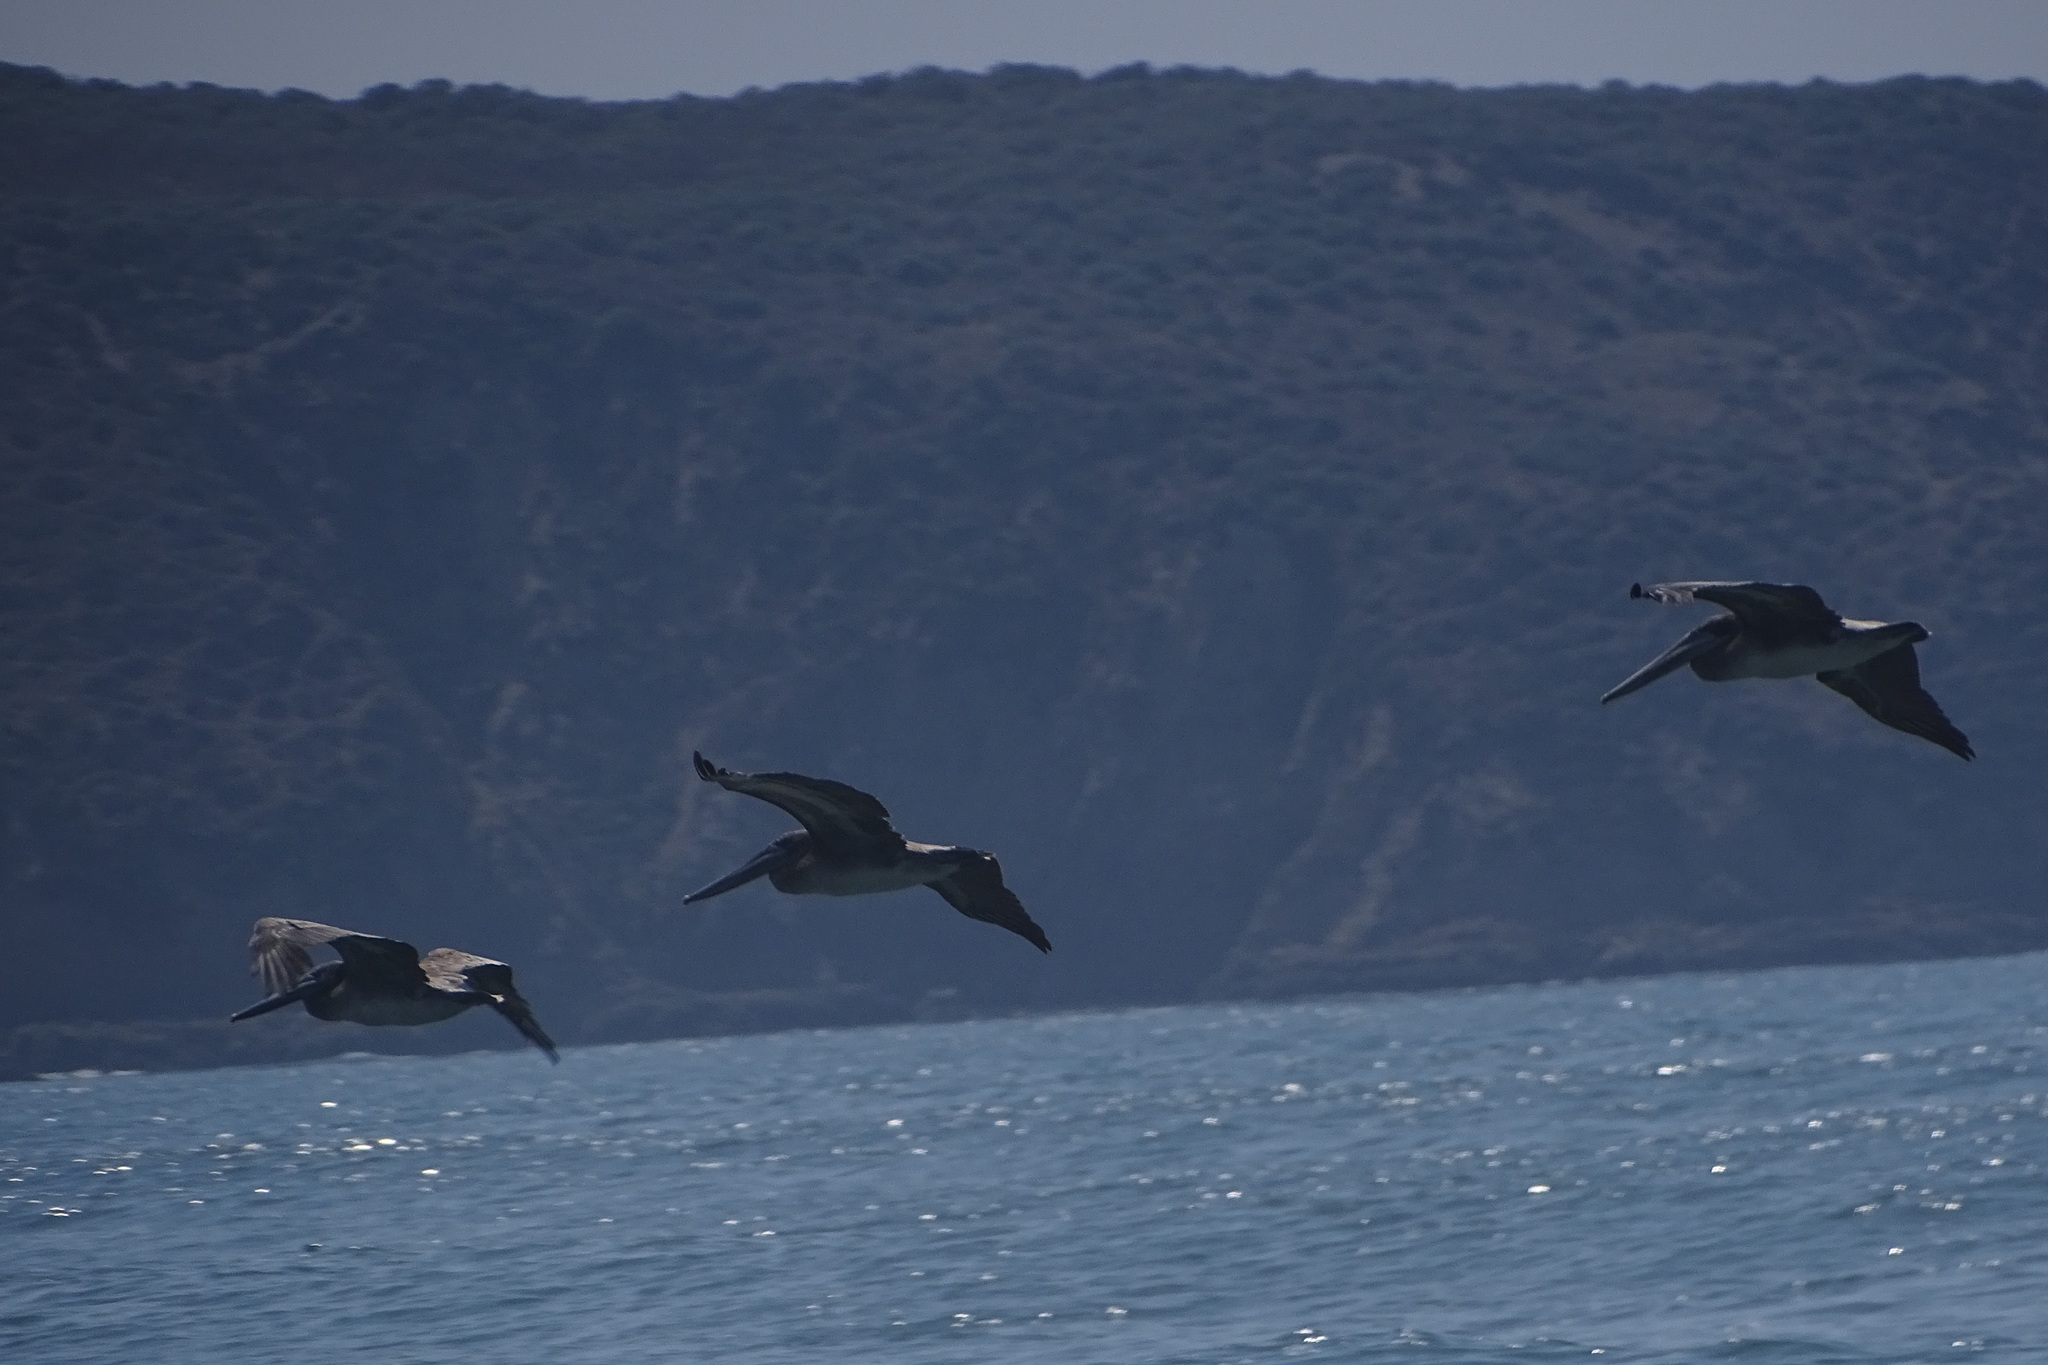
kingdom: Animalia
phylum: Chordata
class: Aves
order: Pelecaniformes
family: Pelecanidae
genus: Pelecanus
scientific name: Pelecanus occidentalis
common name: Brown pelican
